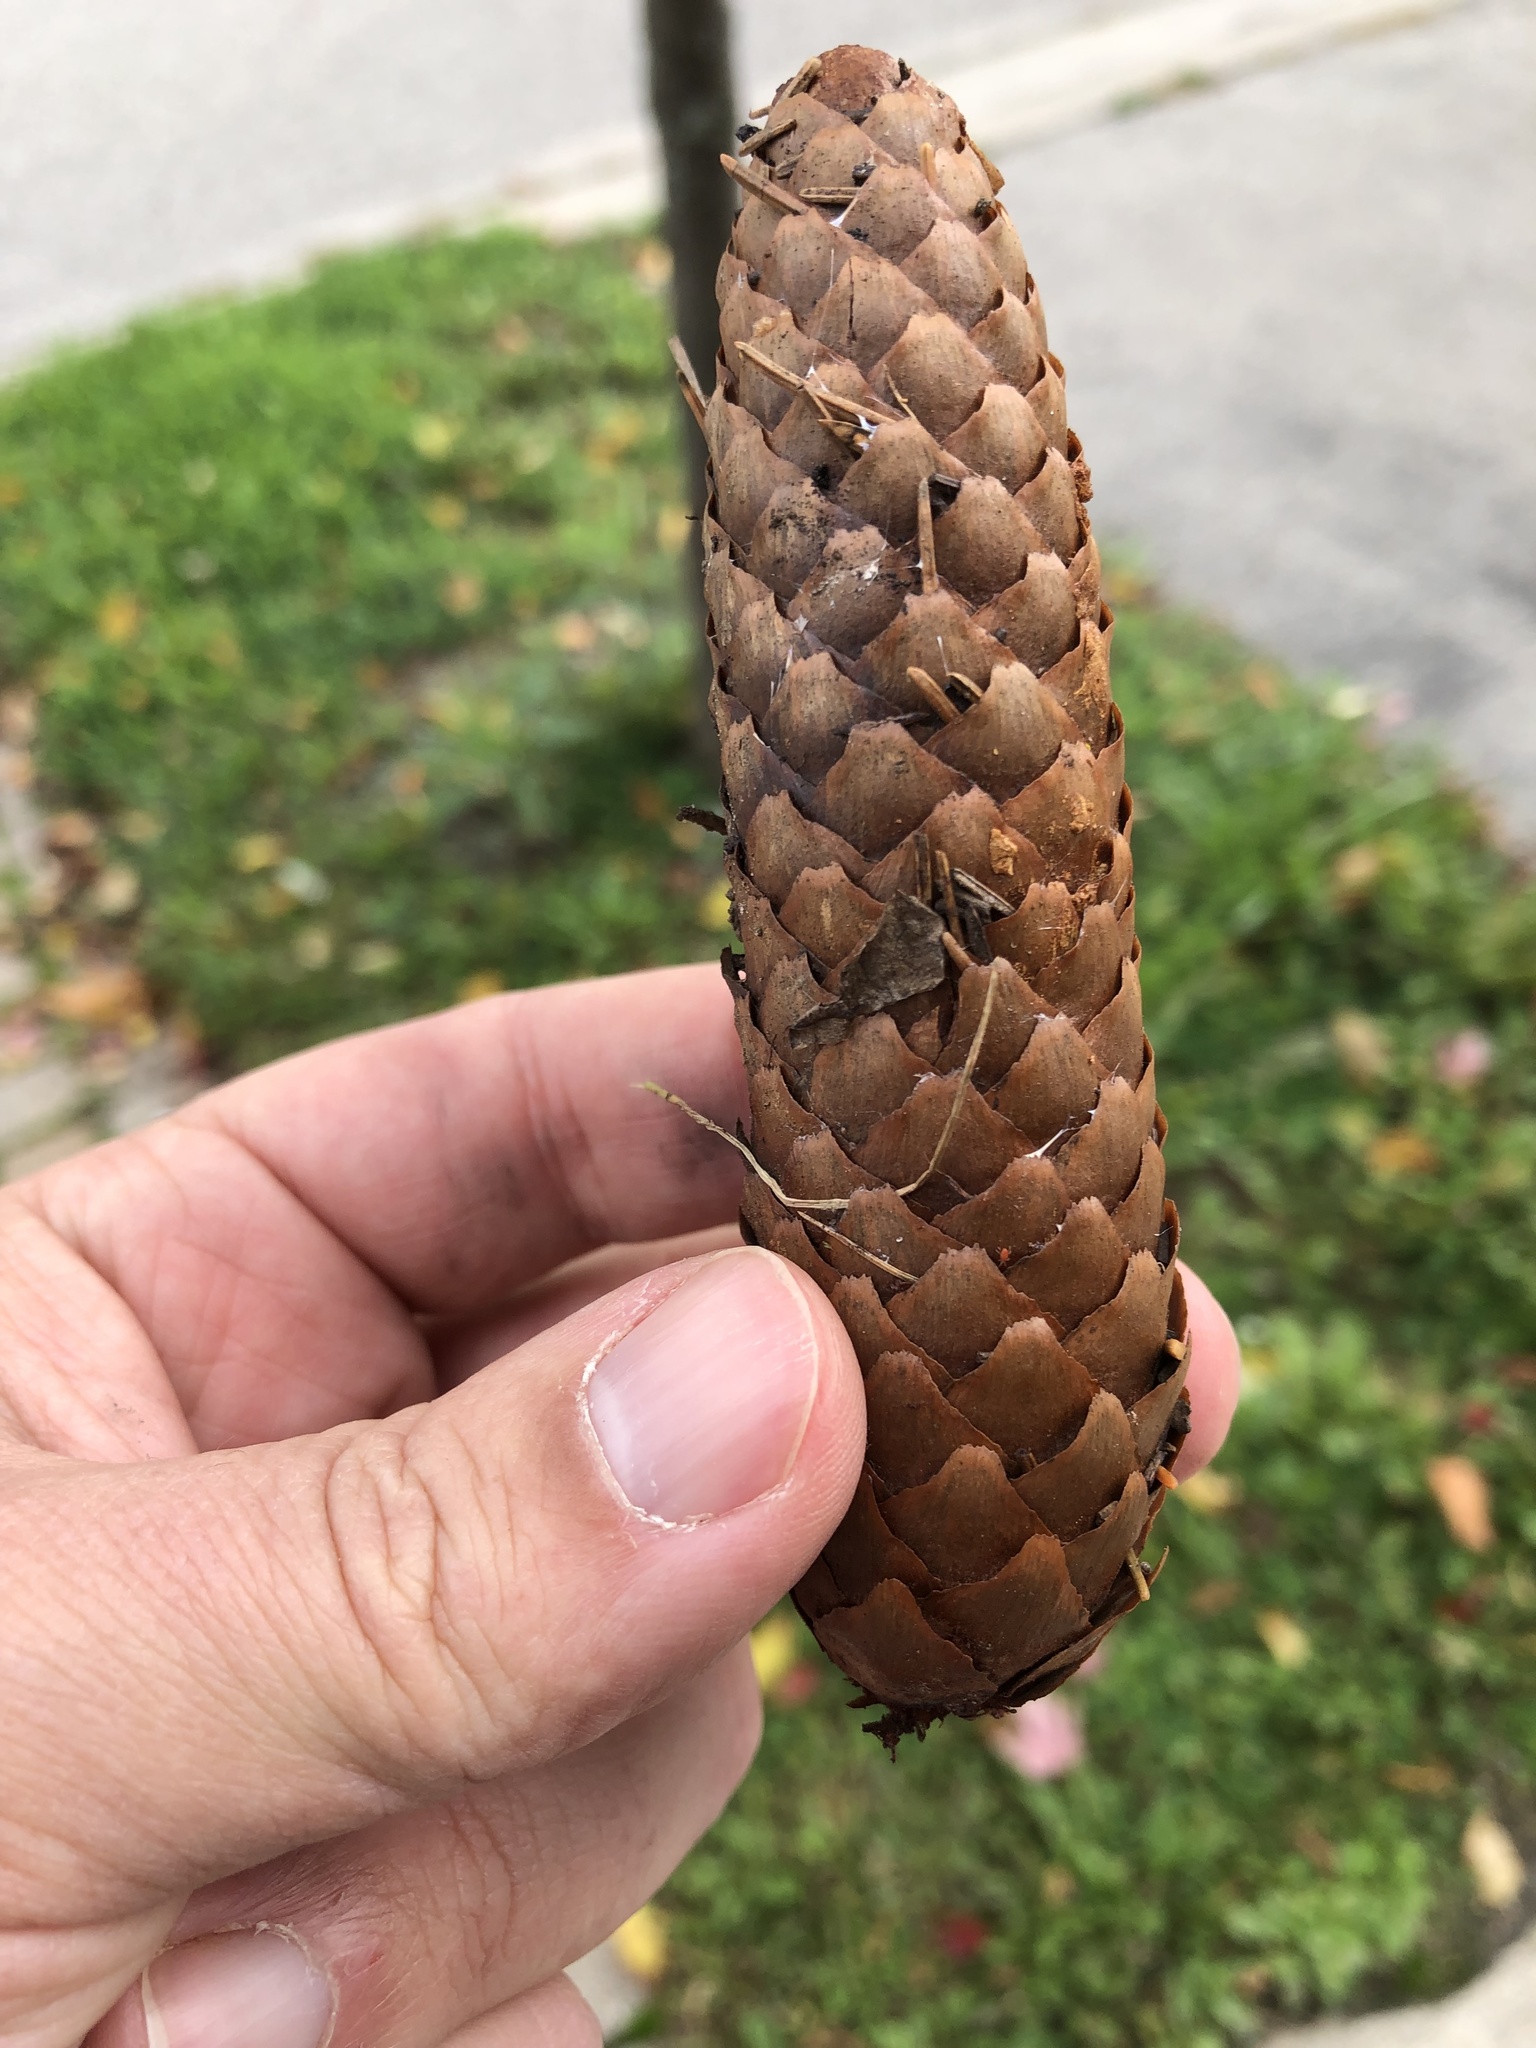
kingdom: Plantae
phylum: Tracheophyta
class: Pinopsida
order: Pinales
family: Pinaceae
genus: Picea
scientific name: Picea abies
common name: Norway spruce
